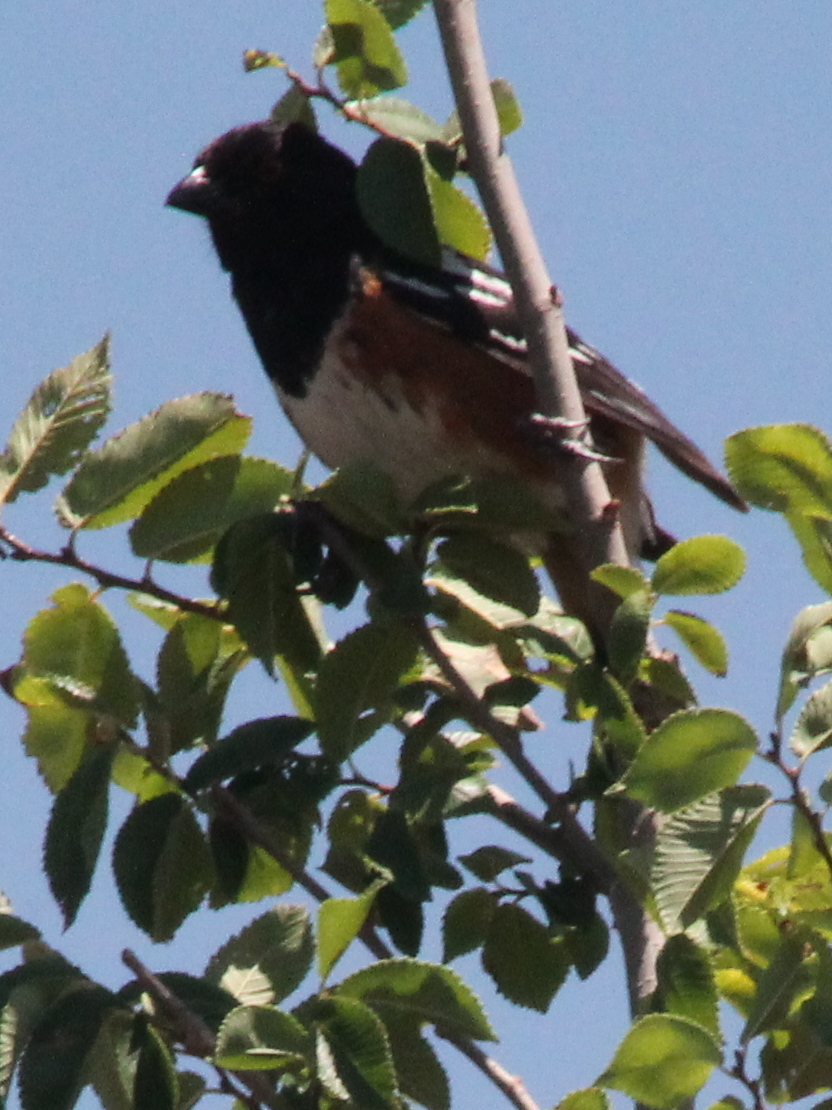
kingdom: Animalia
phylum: Chordata
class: Aves
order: Passeriformes
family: Passerellidae
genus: Pipilo
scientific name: Pipilo maculatus
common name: Spotted towhee
